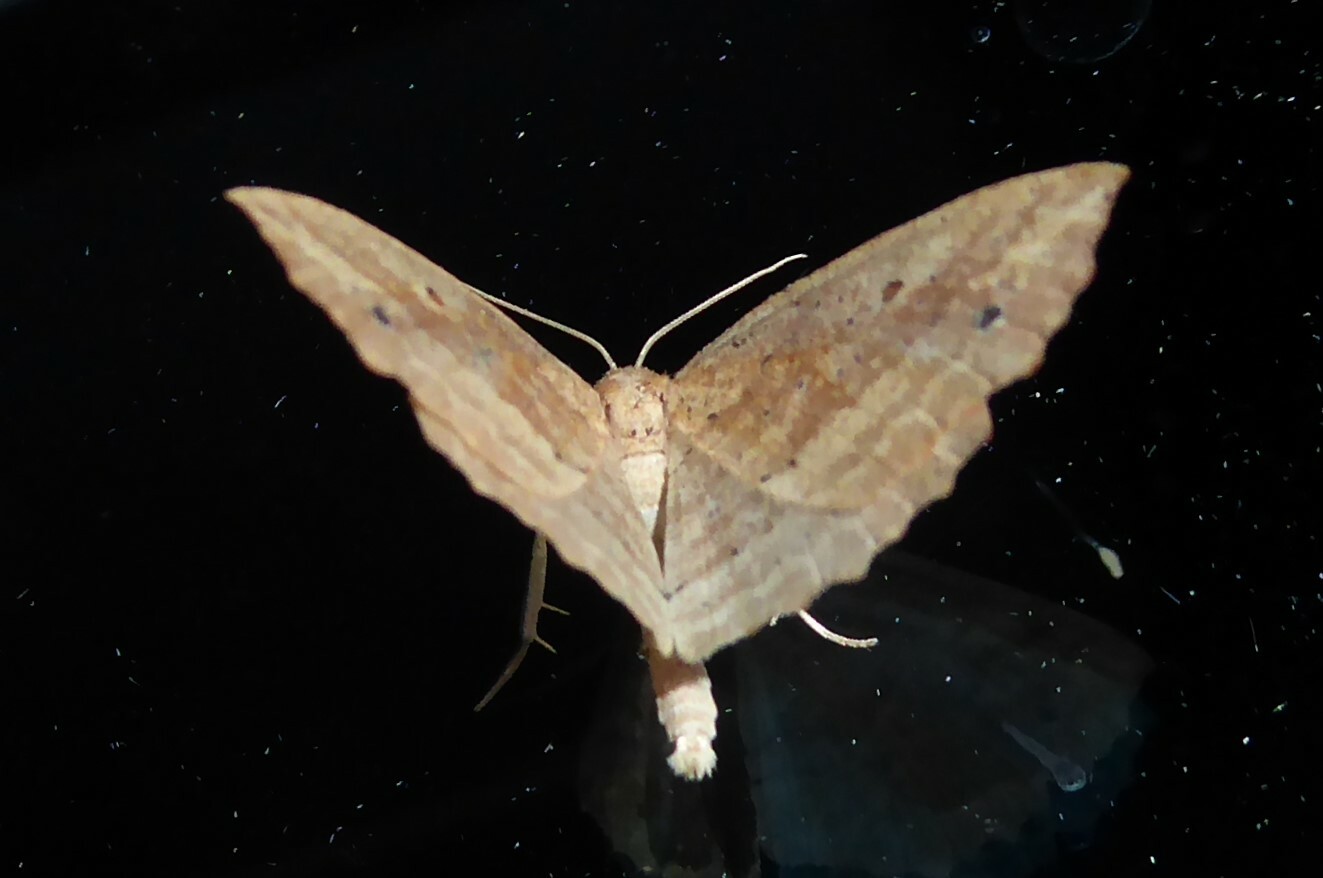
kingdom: Animalia
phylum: Arthropoda
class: Insecta
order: Lepidoptera
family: Geometridae
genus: Xyridacma
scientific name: Xyridacma veronicae
